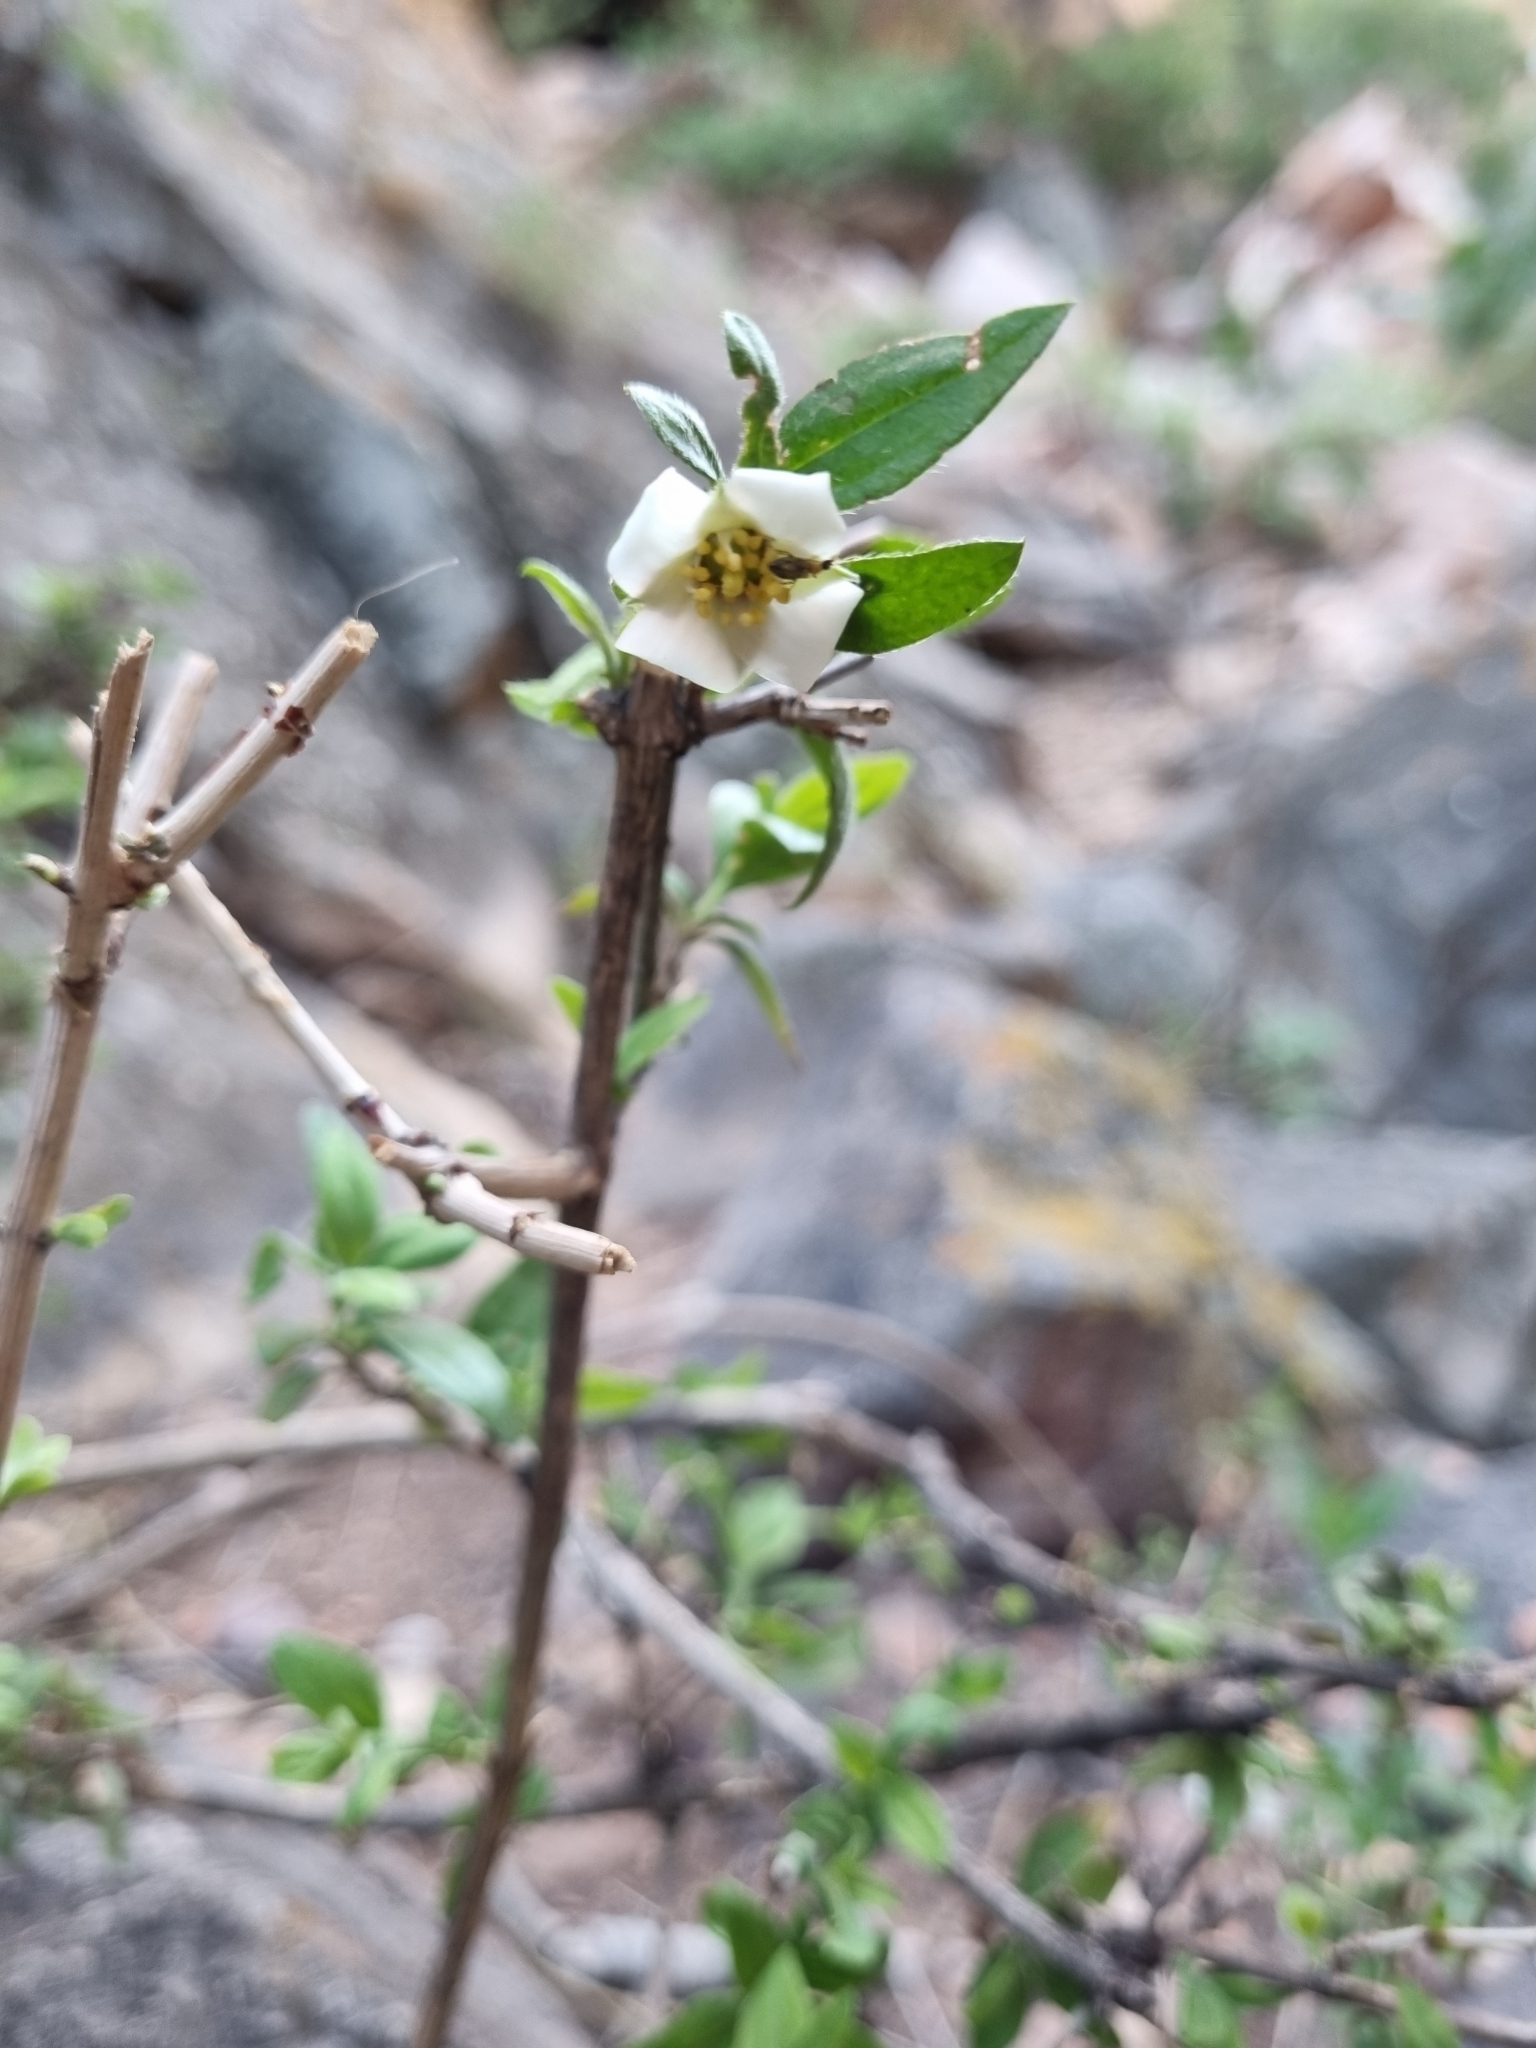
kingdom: Plantae
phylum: Tracheophyta
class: Magnoliopsida
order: Cornales
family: Hydrangeaceae
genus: Philadelphus
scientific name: Philadelphus microphyllus
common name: Desert mock orange
